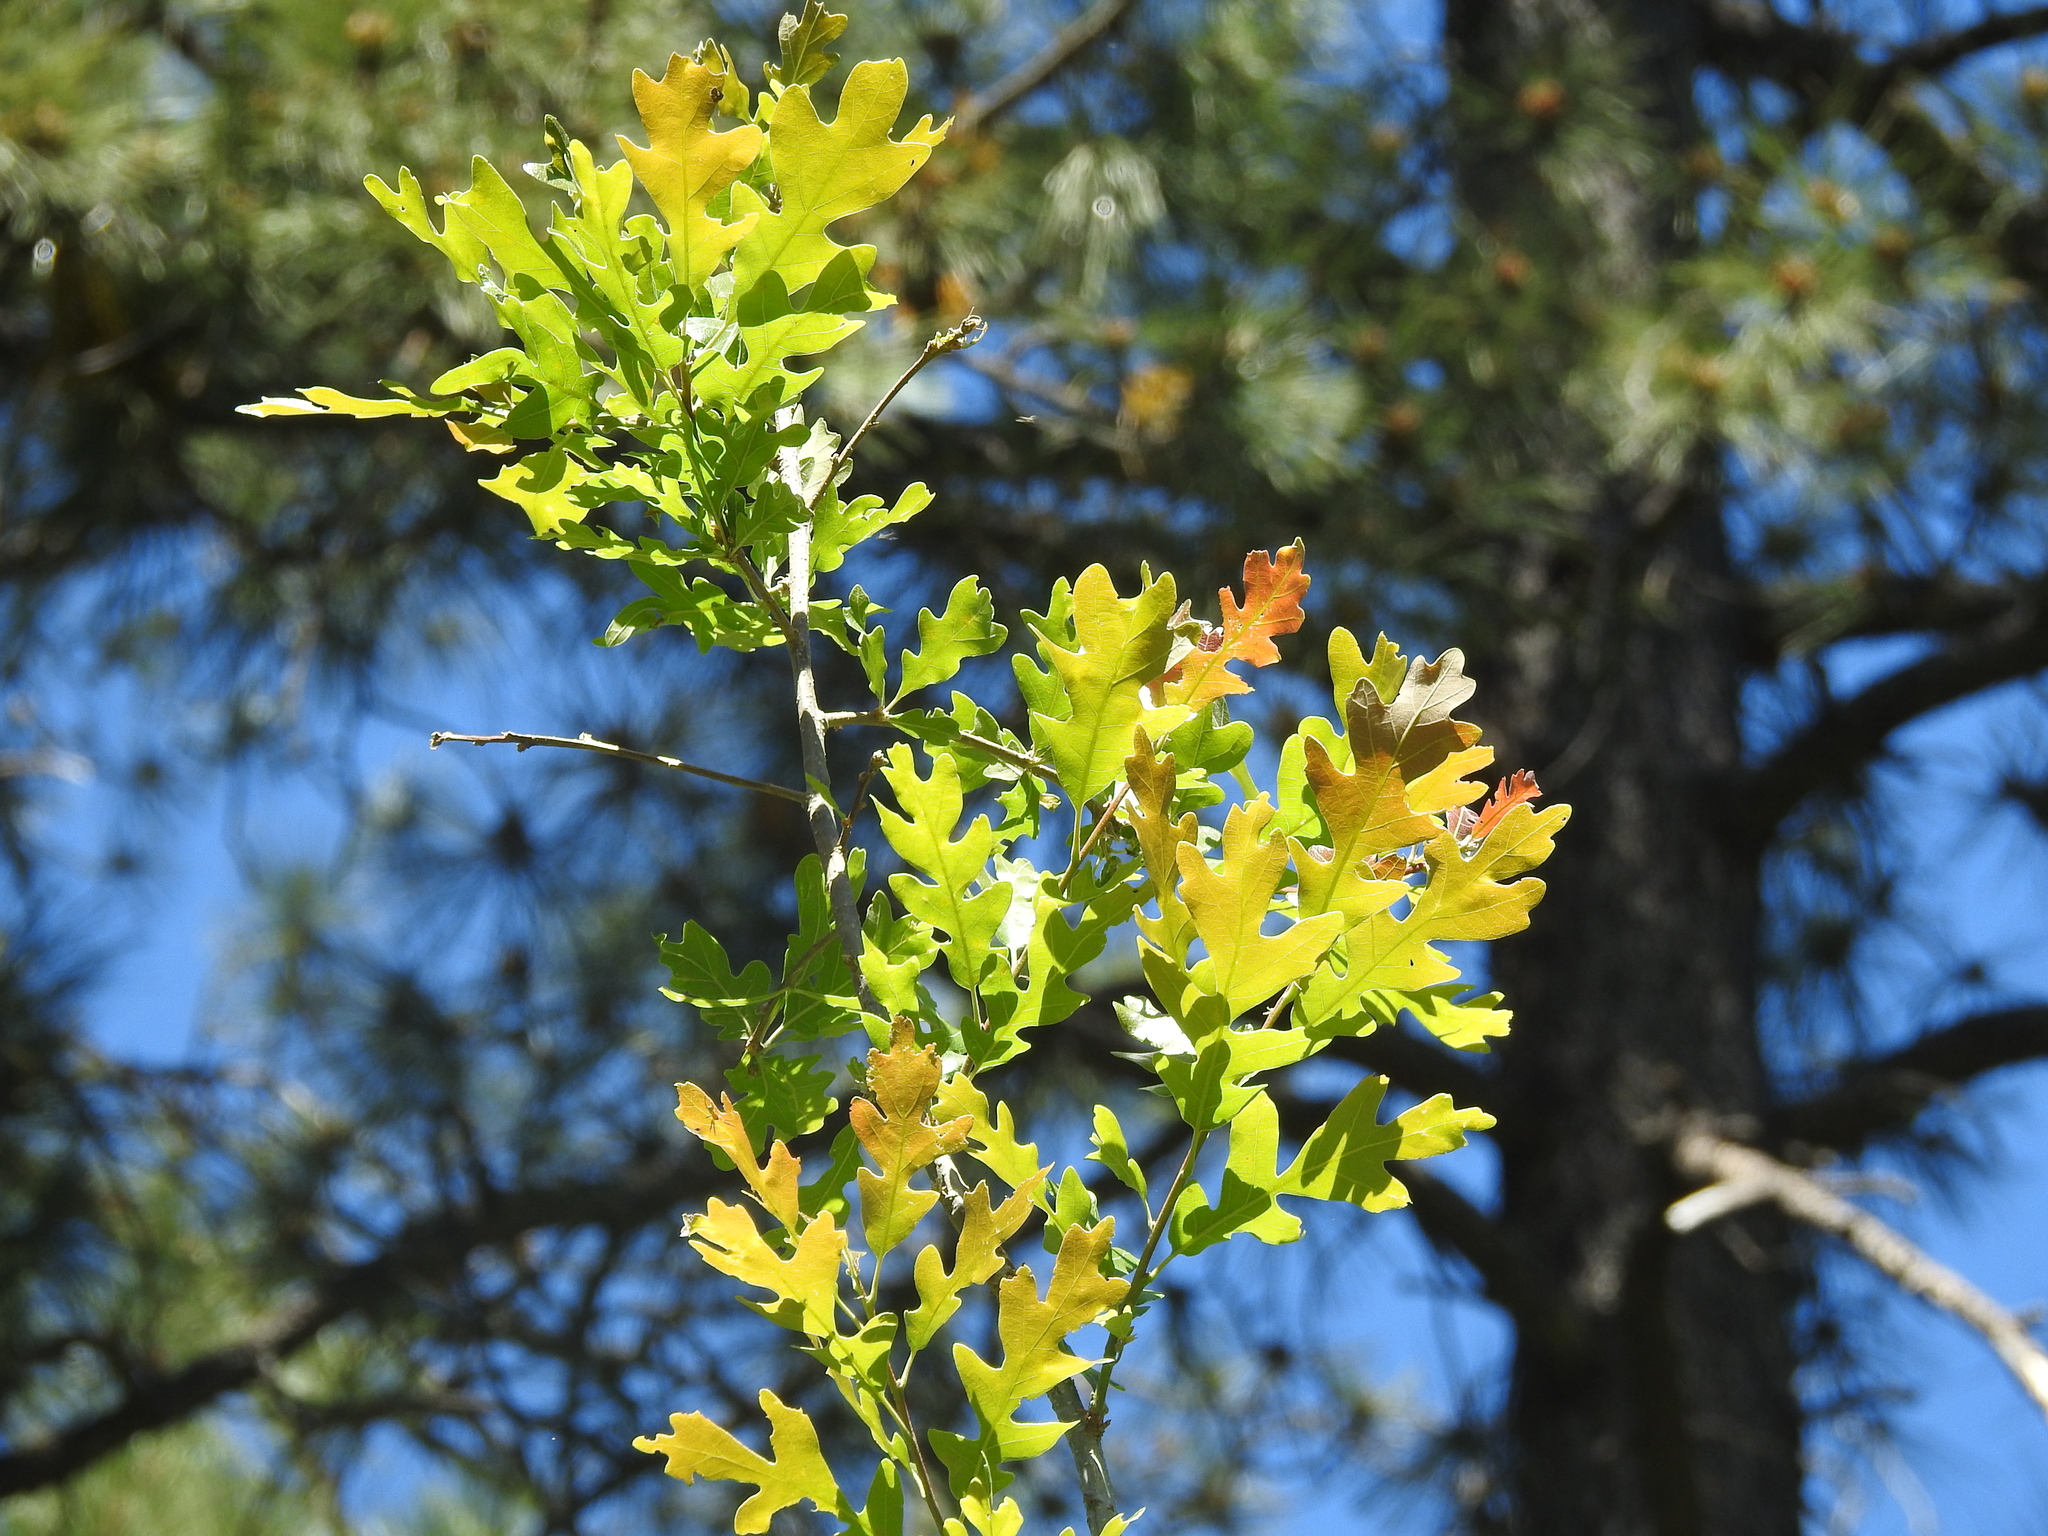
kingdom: Plantae
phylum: Tracheophyta
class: Magnoliopsida
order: Fagales
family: Fagaceae
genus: Quercus
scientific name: Quercus gambelii
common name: Gambel oak
